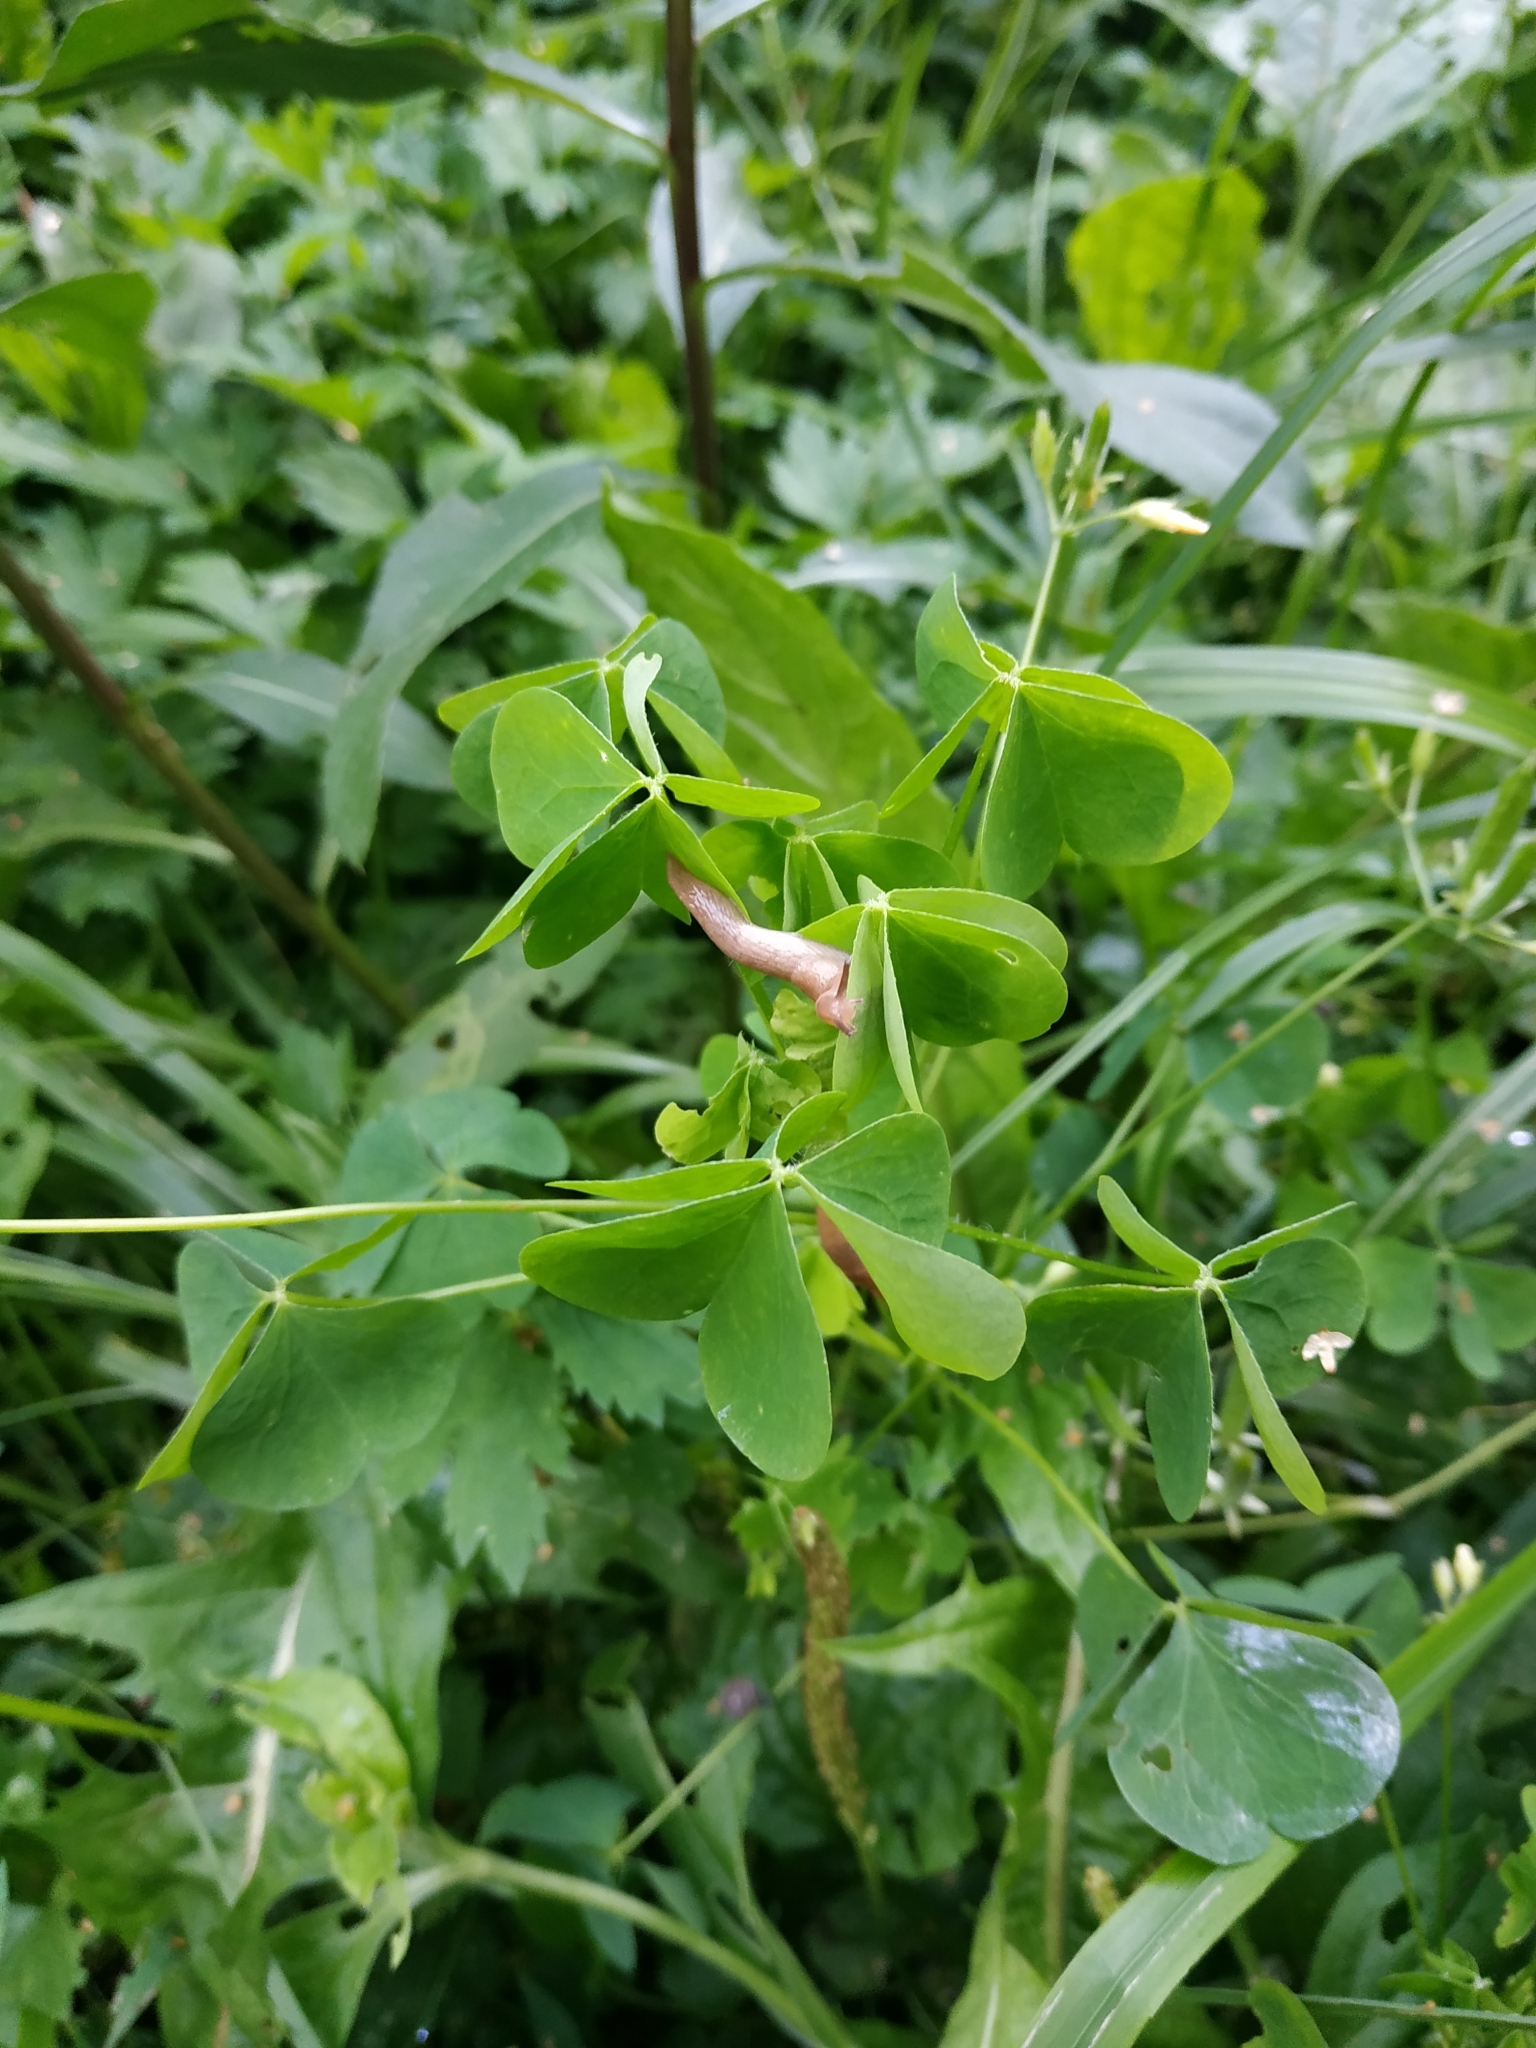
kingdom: Plantae
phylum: Tracheophyta
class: Magnoliopsida
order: Oxalidales
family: Oxalidaceae
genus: Oxalis
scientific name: Oxalis stricta
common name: Upright yellow-sorrel
